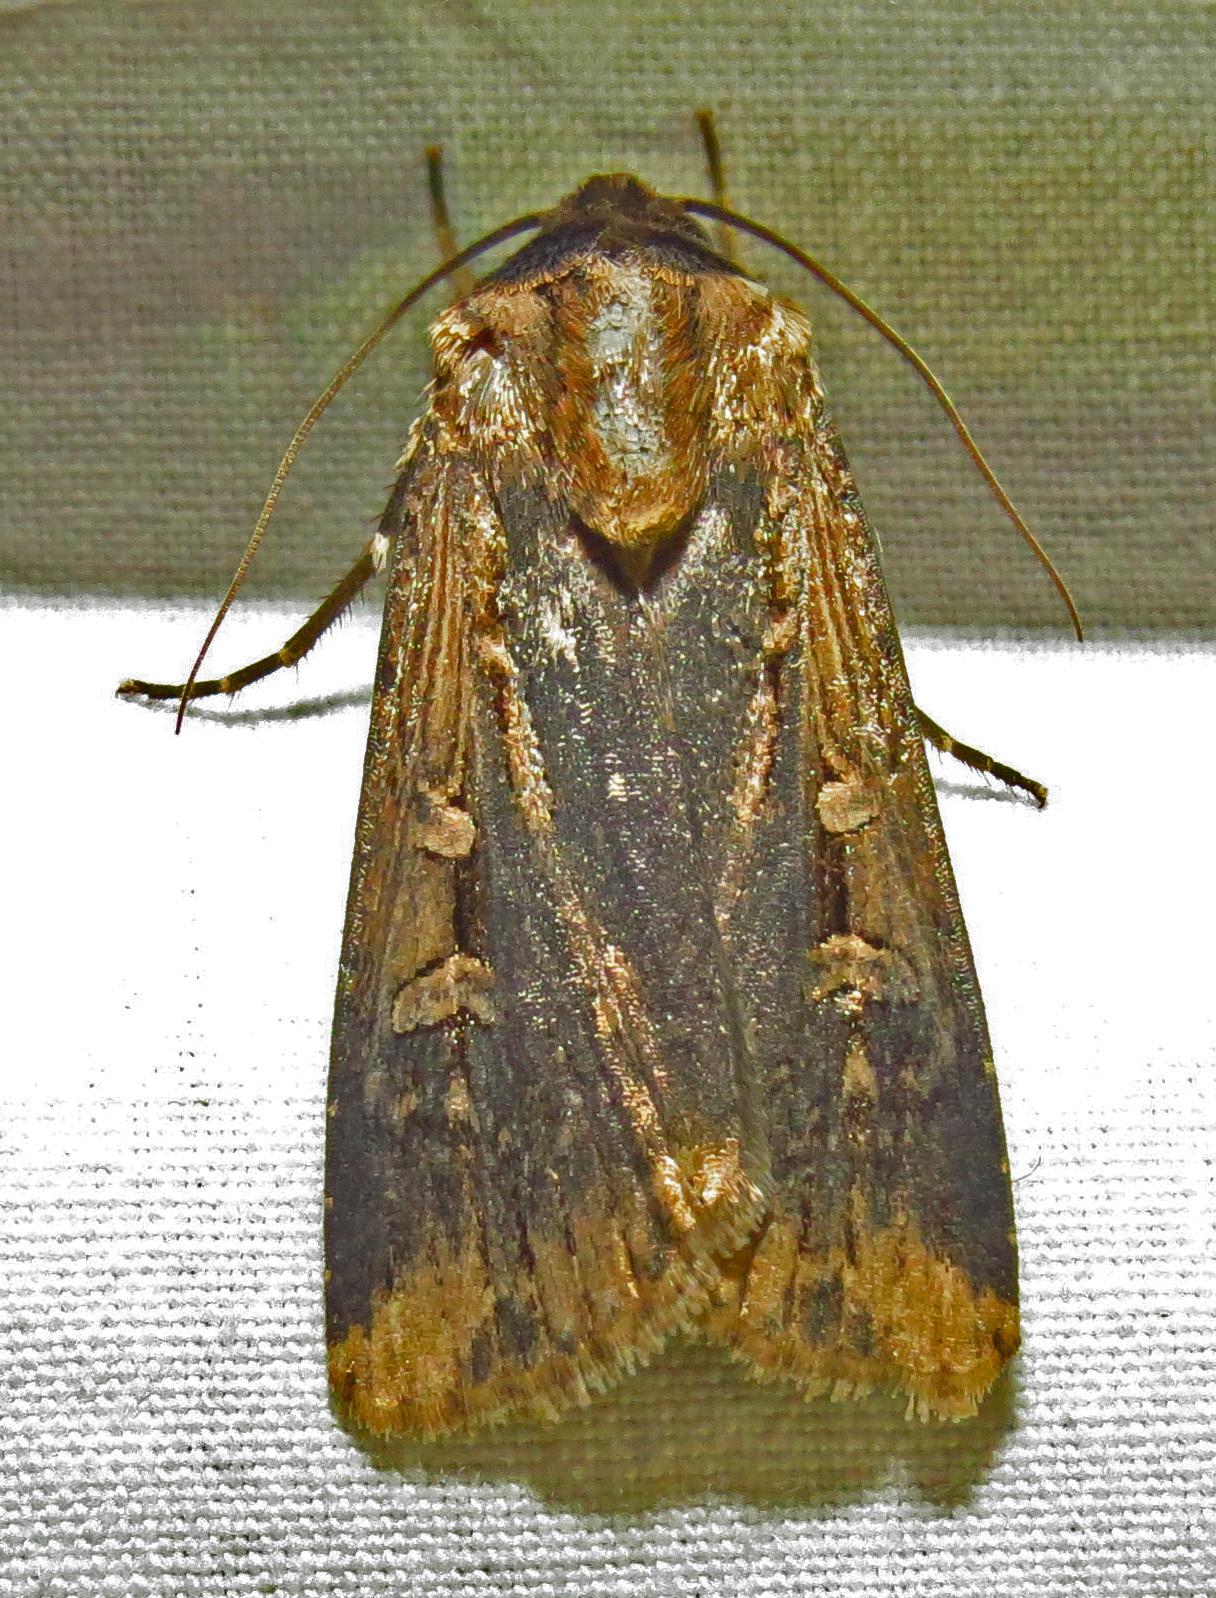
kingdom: Animalia
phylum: Arthropoda
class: Insecta
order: Lepidoptera
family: Noctuidae
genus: Feltia
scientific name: Feltia subterranea
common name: Granulate cutworm
